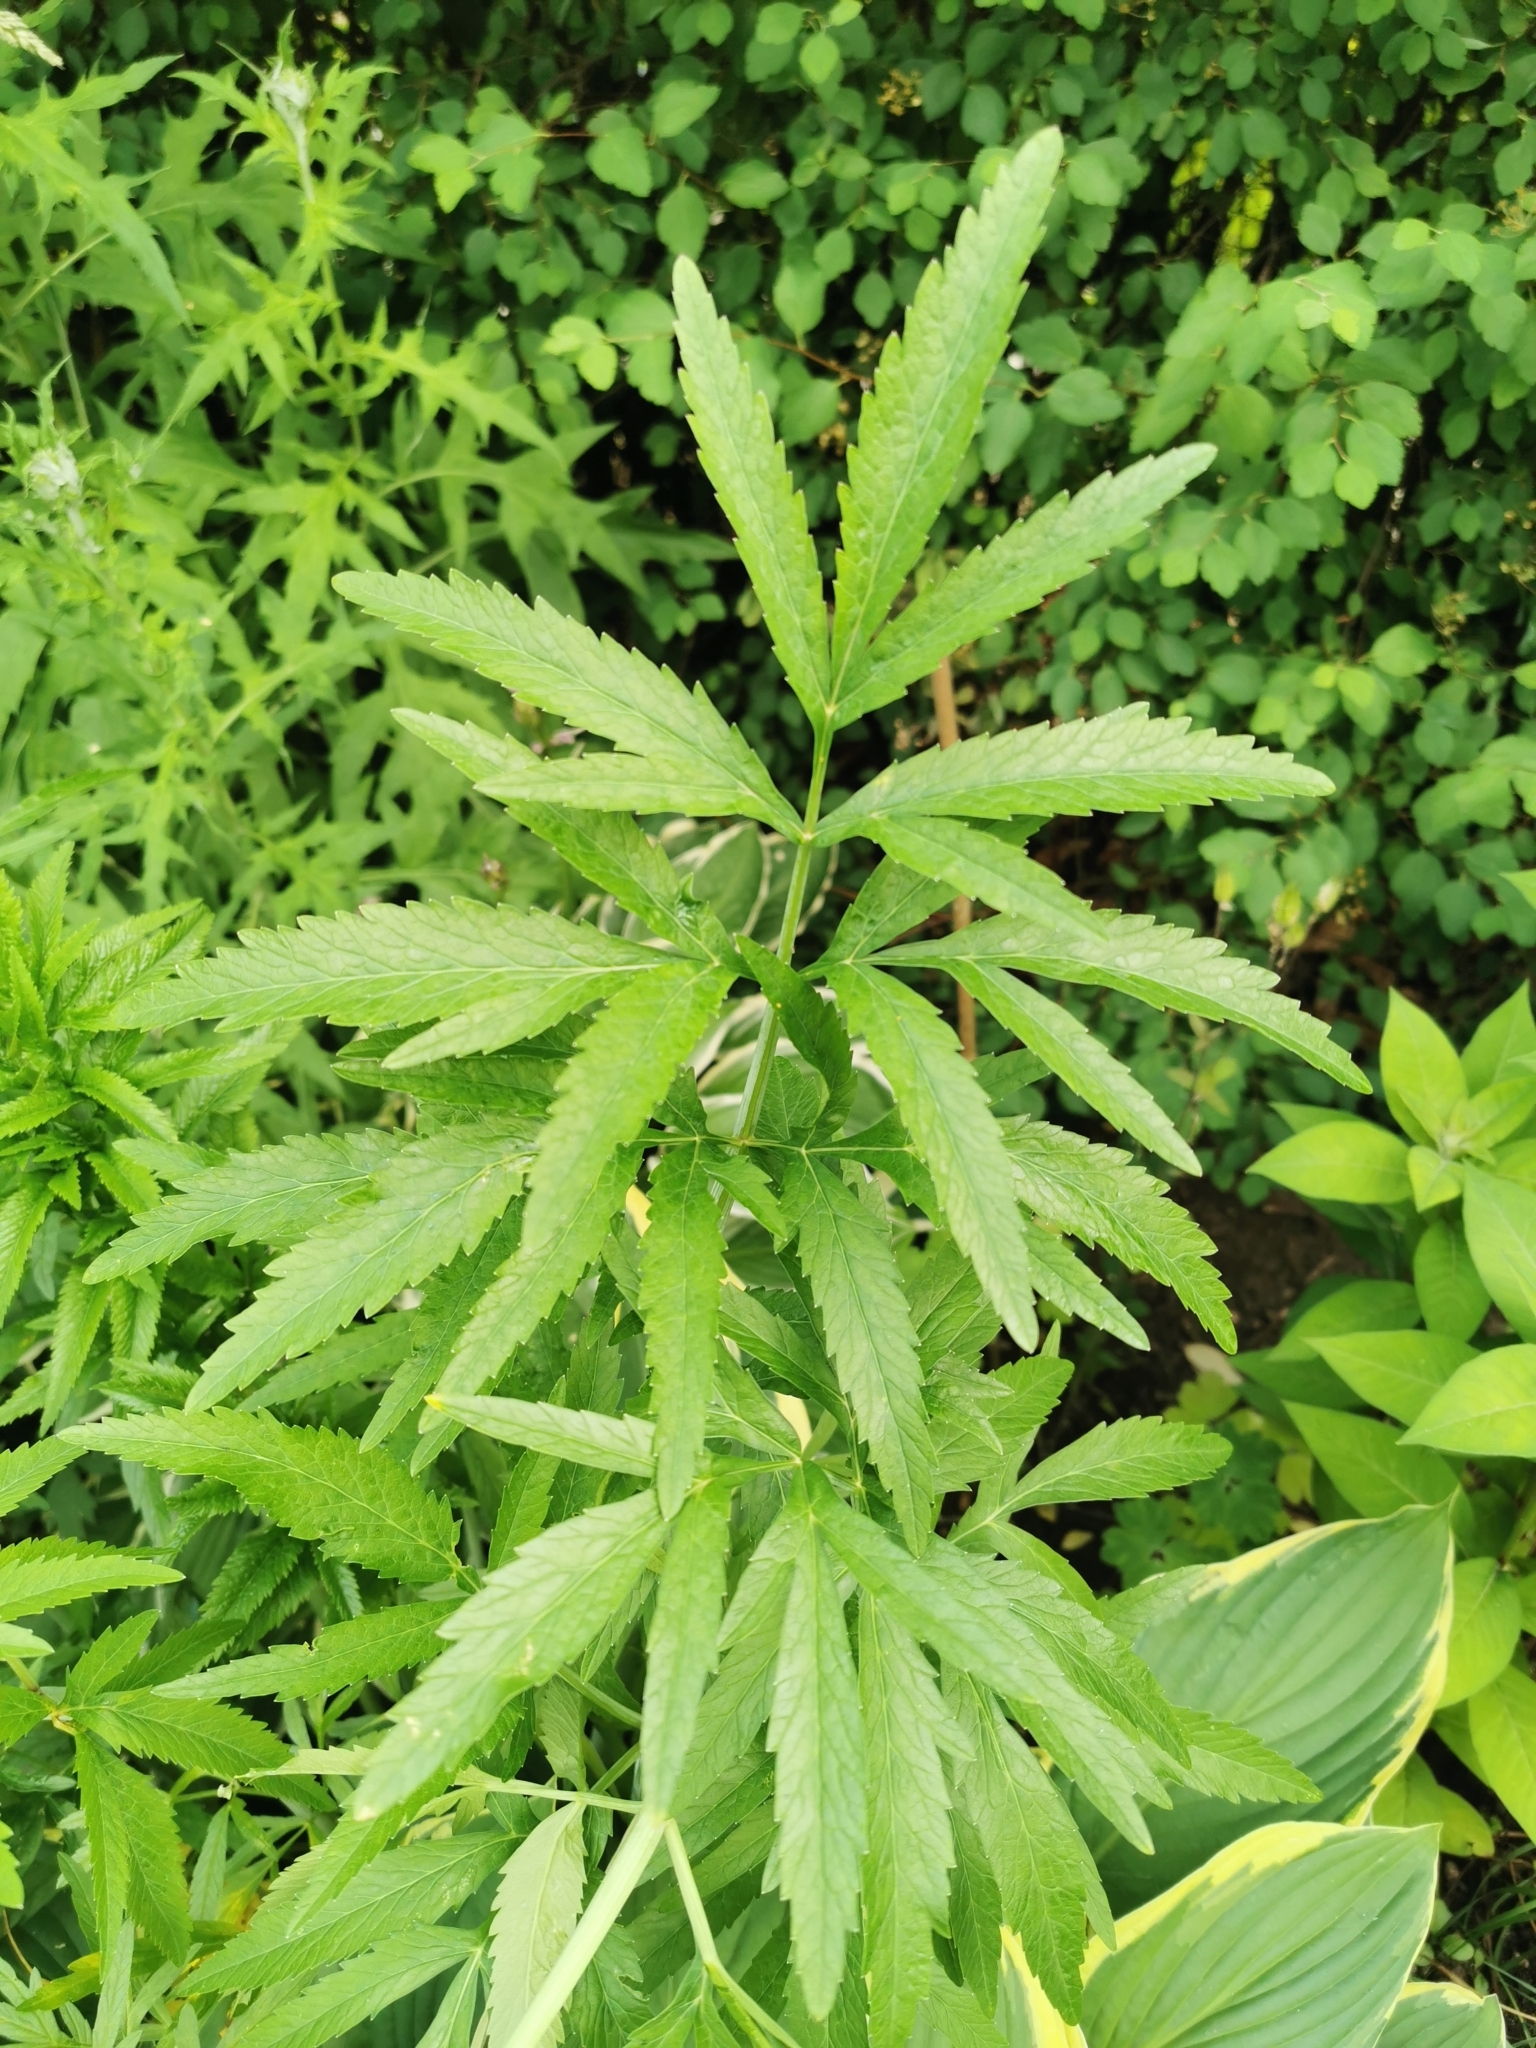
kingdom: Plantae
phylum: Tracheophyta
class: Magnoliopsida
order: Apiales
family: Apiaceae
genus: Cicuta
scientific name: Cicuta virosa
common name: Cowbane
